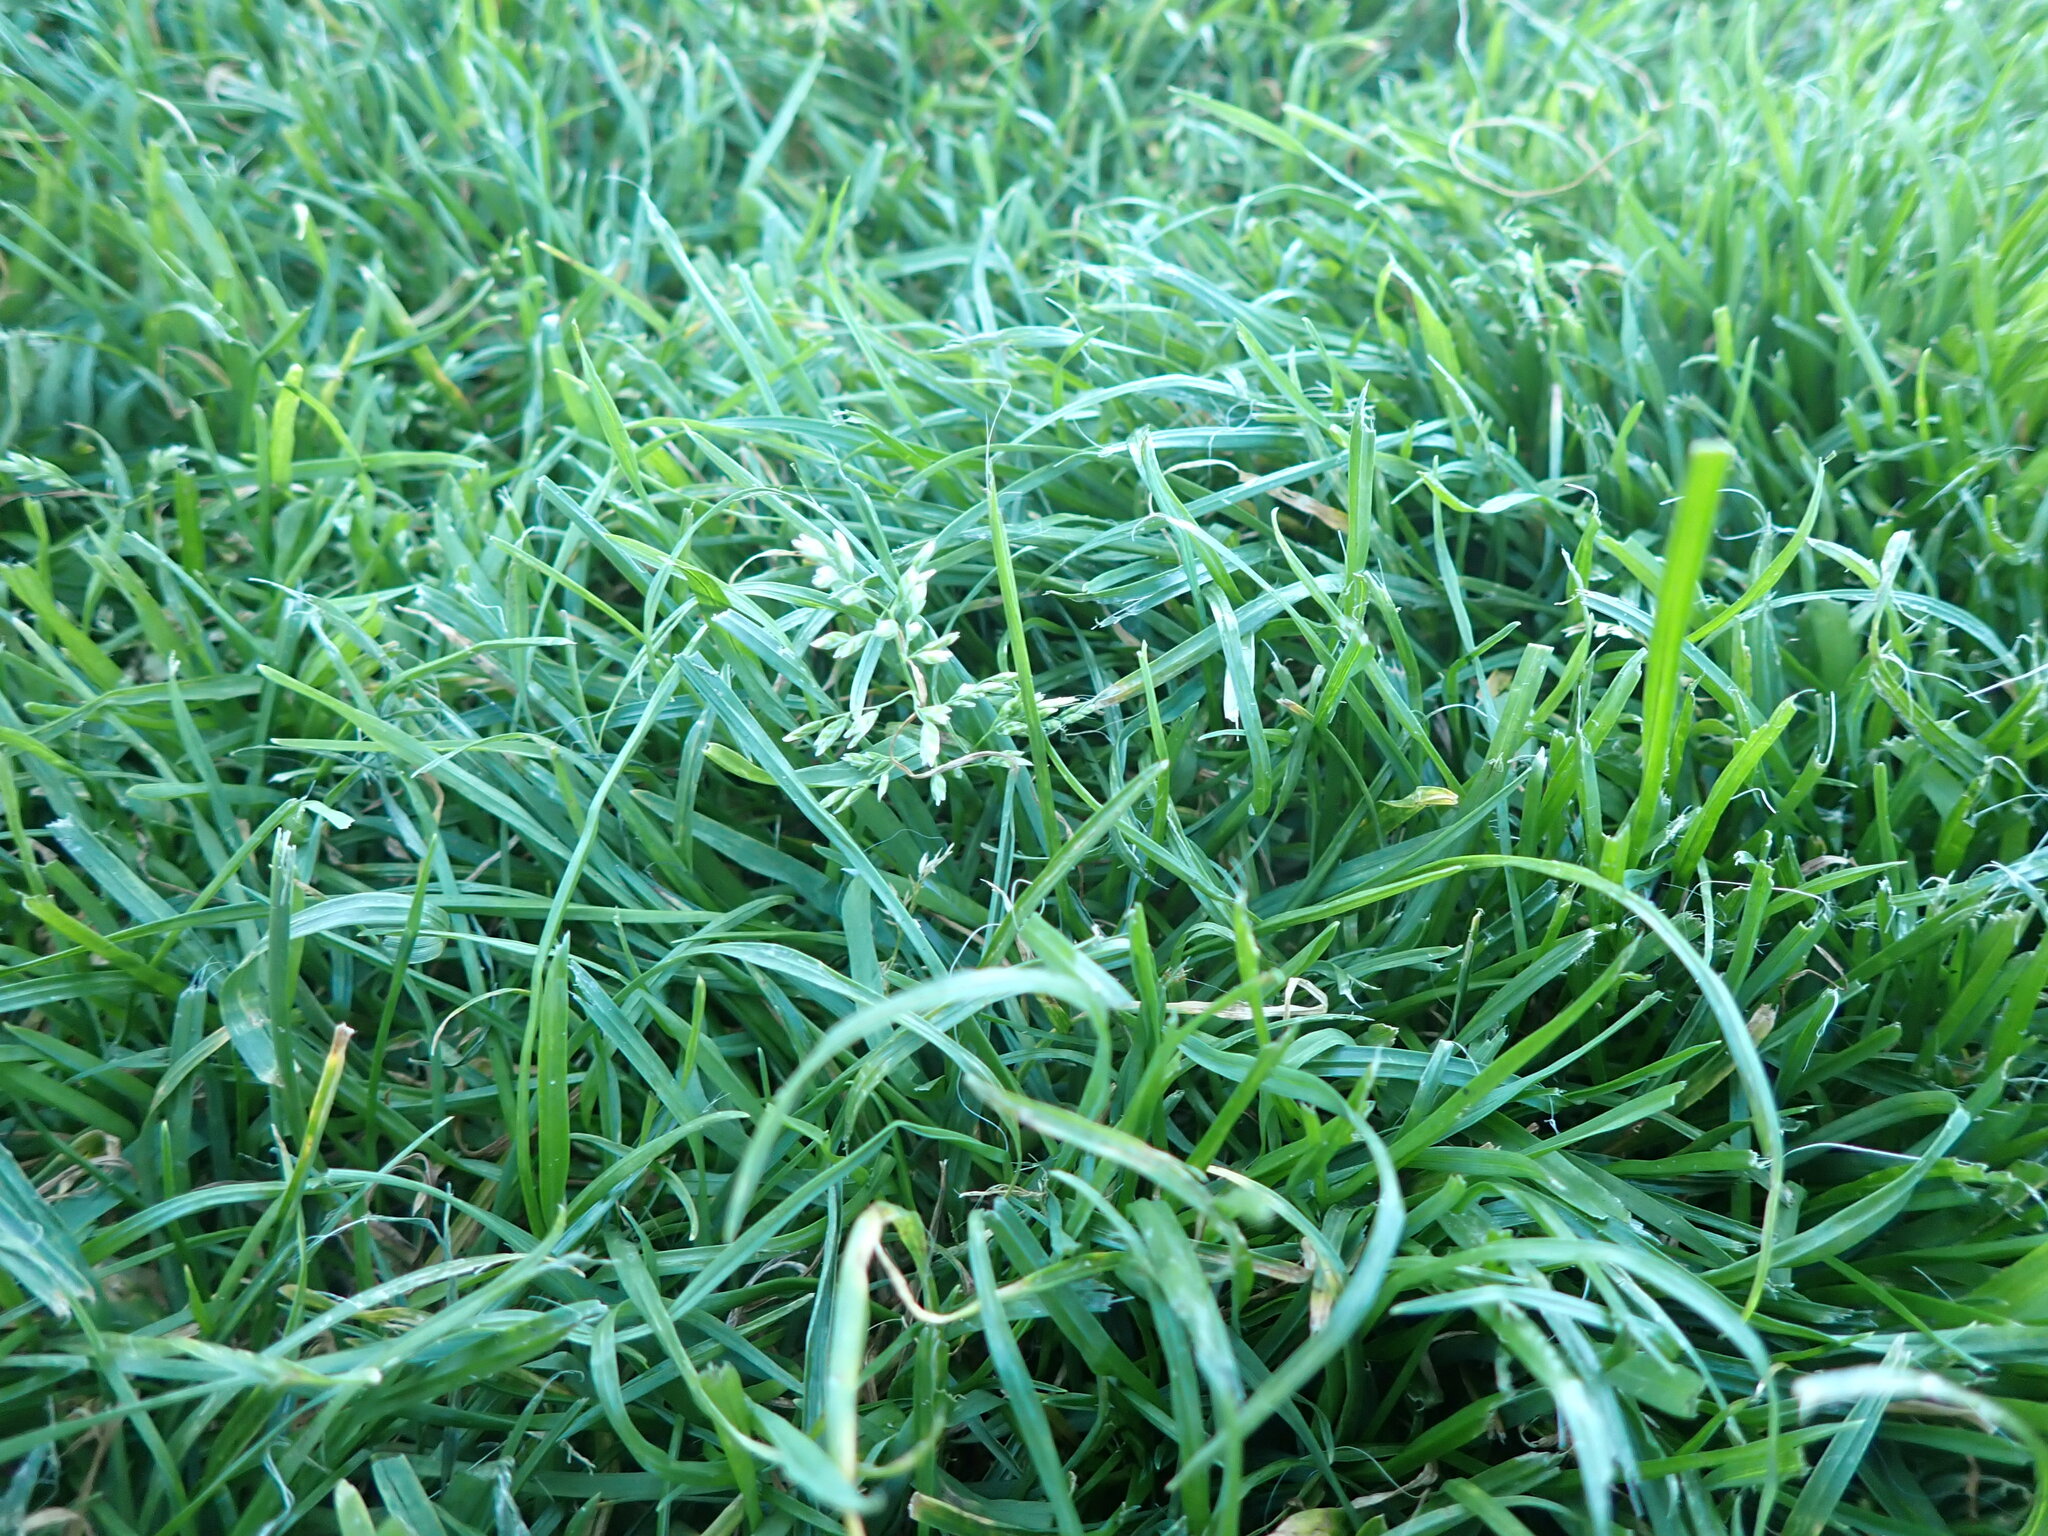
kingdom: Plantae
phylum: Tracheophyta
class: Liliopsida
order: Poales
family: Poaceae
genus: Poa
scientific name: Poa annua
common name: Annual bluegrass
